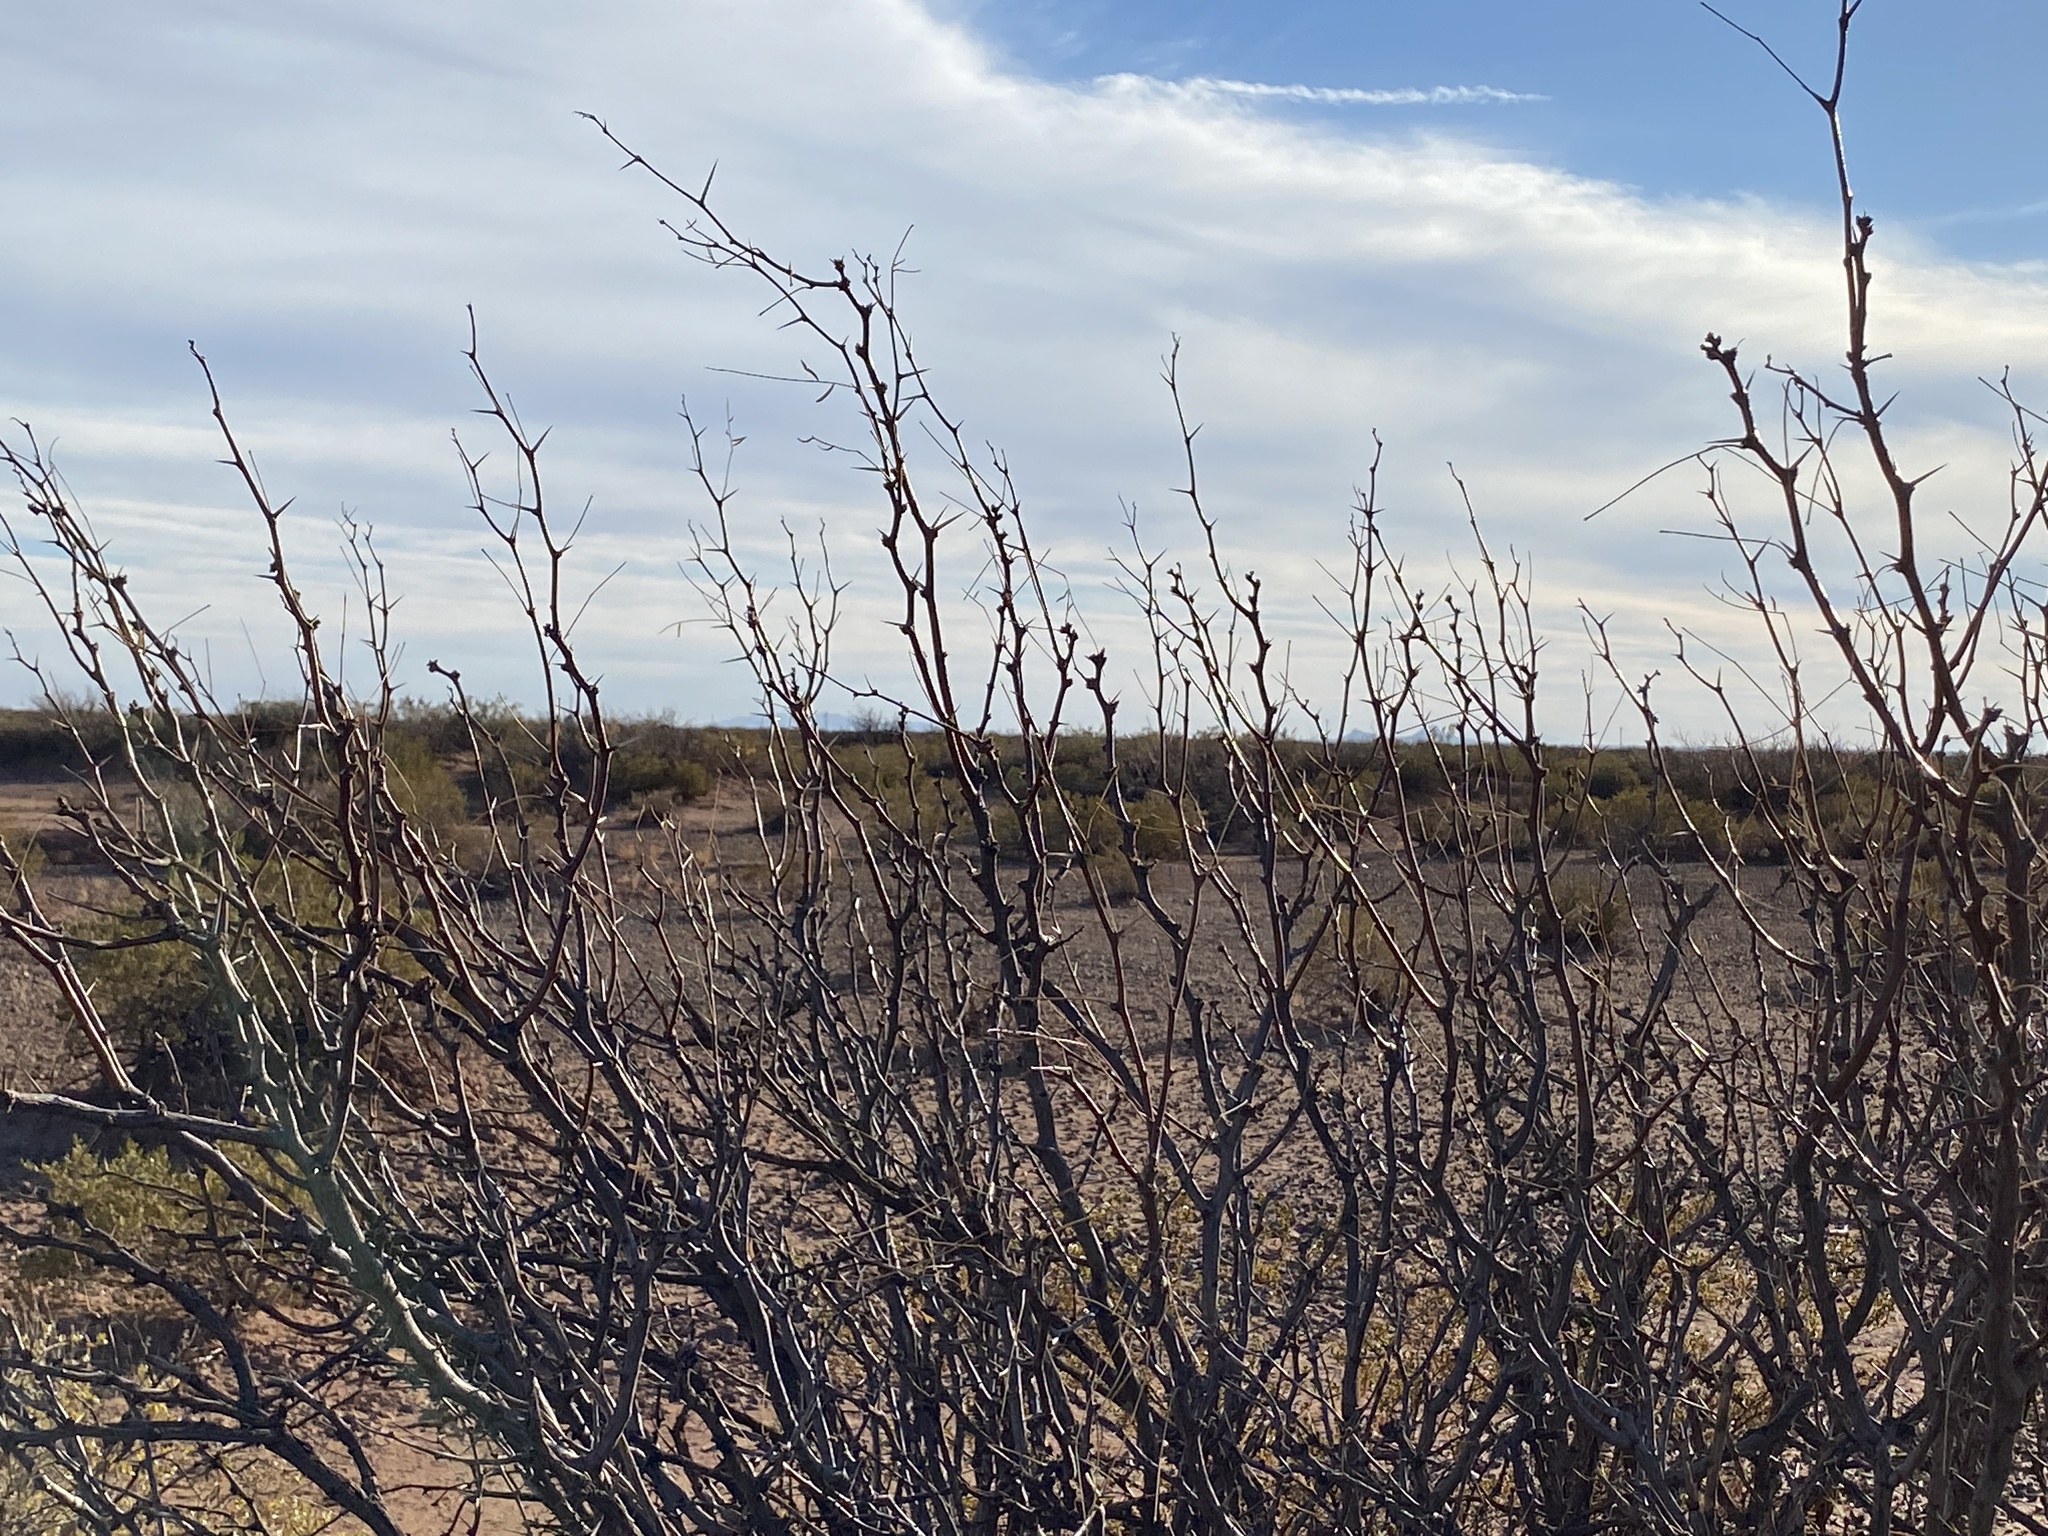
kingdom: Plantae
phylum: Tracheophyta
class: Magnoliopsida
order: Fabales
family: Fabaceae
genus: Prosopis
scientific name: Prosopis glandulosa
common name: Honey mesquite
